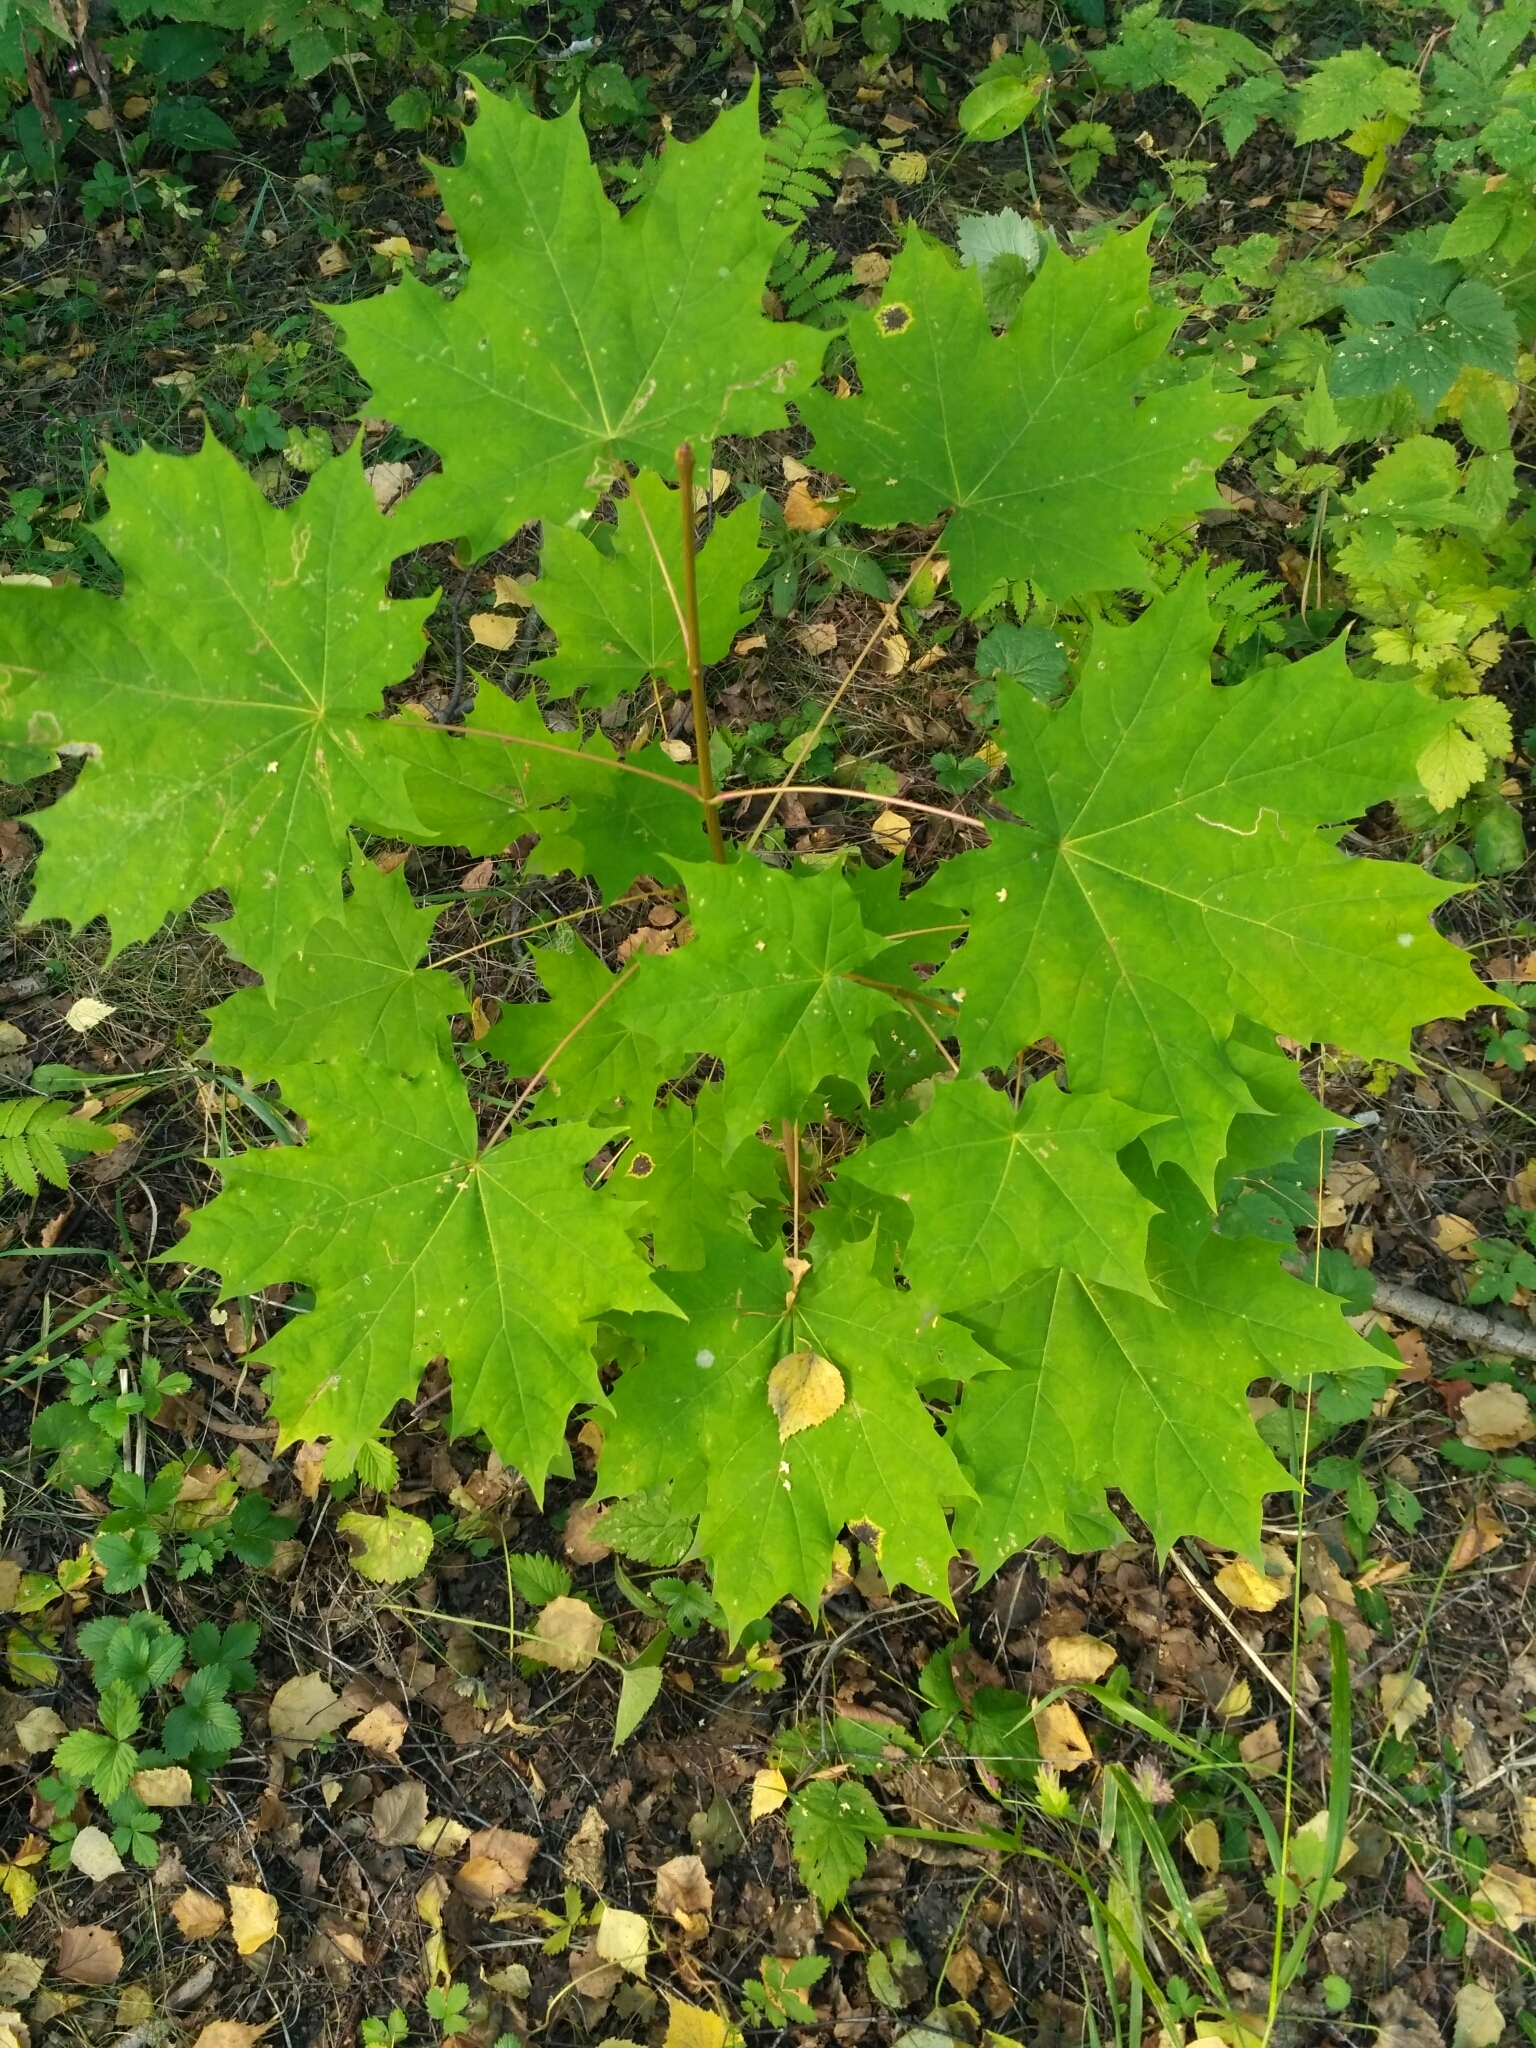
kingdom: Plantae
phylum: Tracheophyta
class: Magnoliopsida
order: Sapindales
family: Sapindaceae
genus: Acer
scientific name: Acer platanoides
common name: Norway maple
